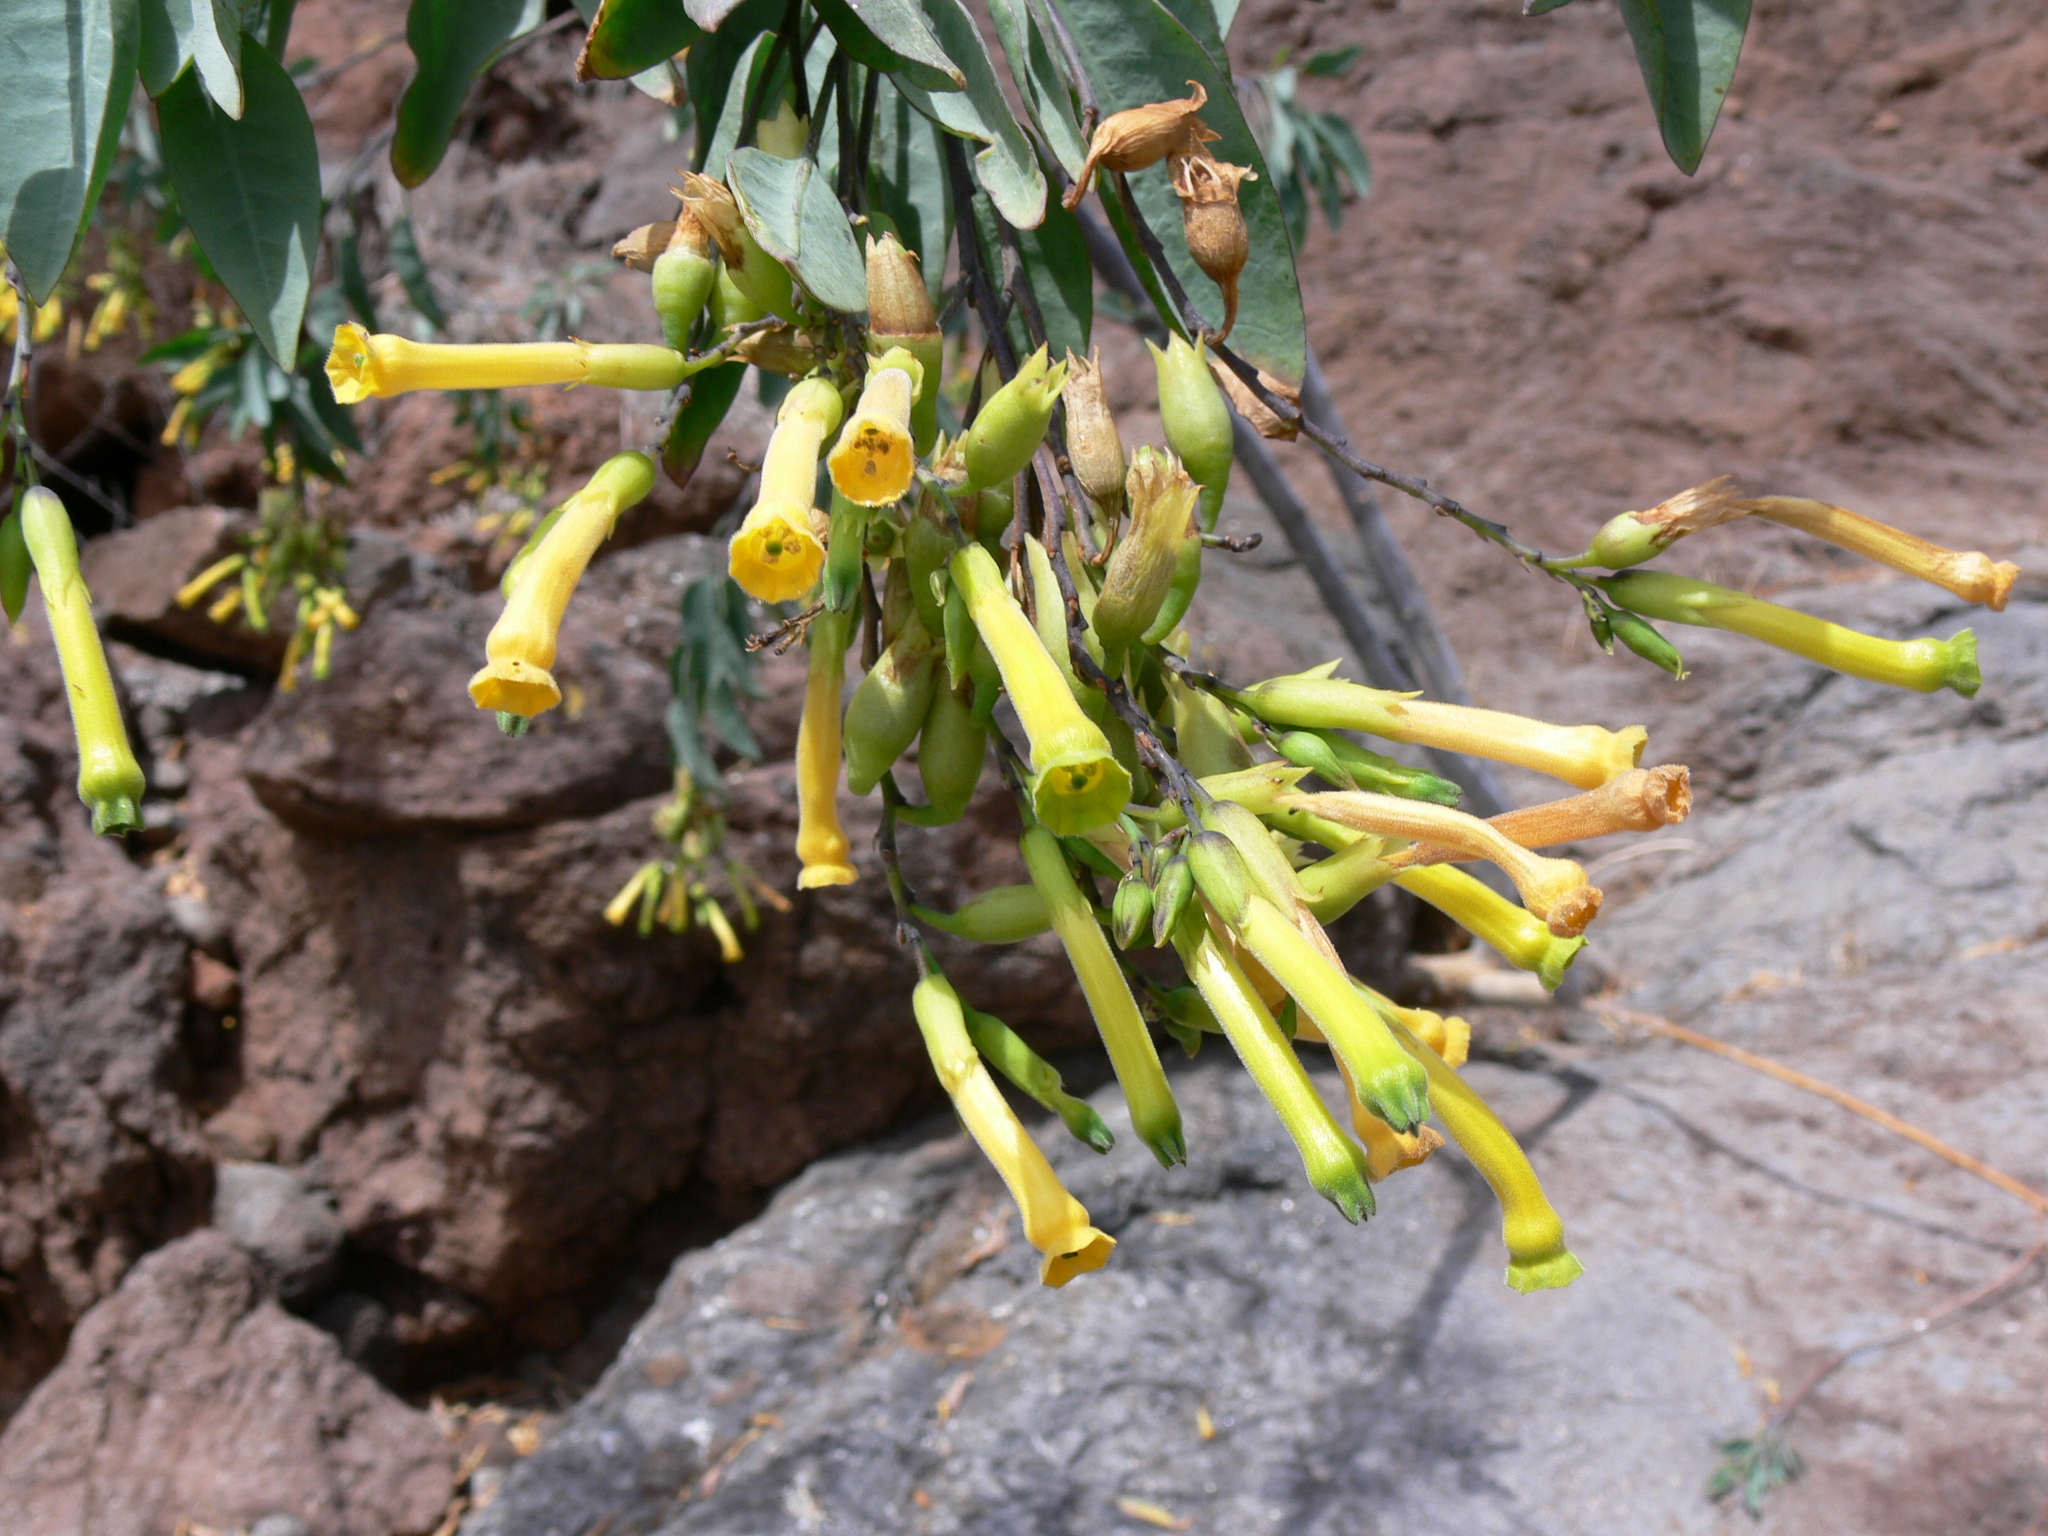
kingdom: Plantae
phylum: Tracheophyta
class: Magnoliopsida
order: Solanales
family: Solanaceae
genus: Nicotiana
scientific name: Nicotiana glauca
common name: Tree tobacco
